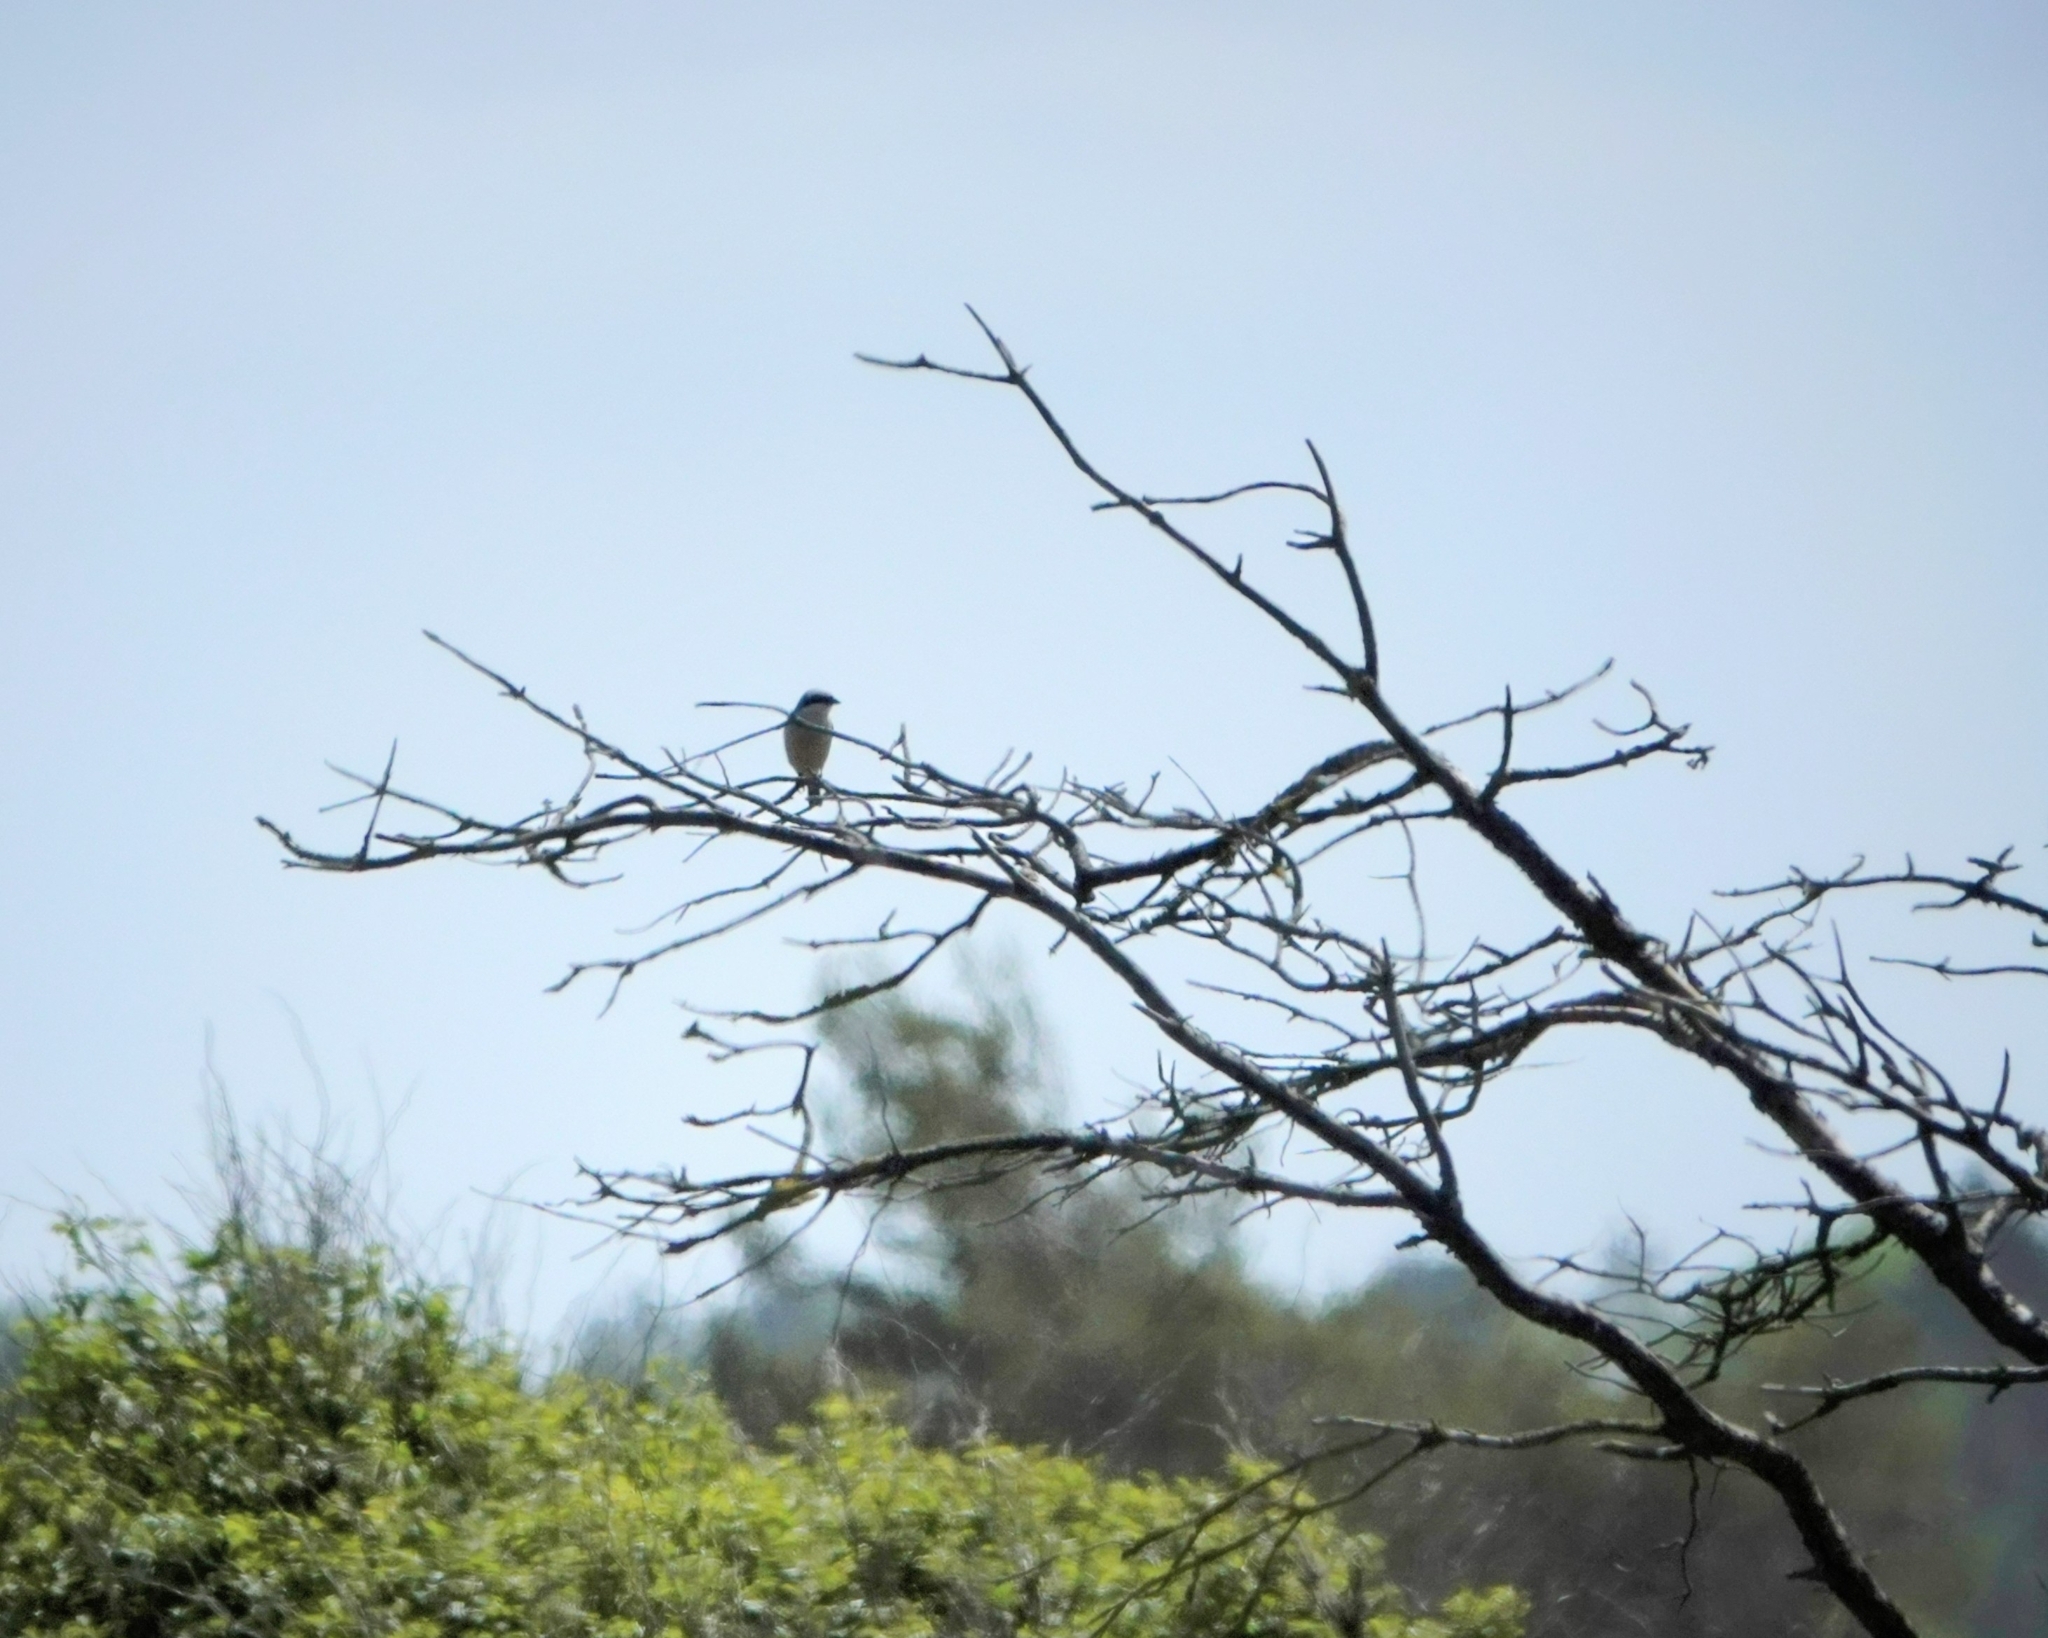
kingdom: Animalia
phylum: Chordata
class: Aves
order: Passeriformes
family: Laniidae
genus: Lanius
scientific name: Lanius collurio
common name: Red-backed shrike
